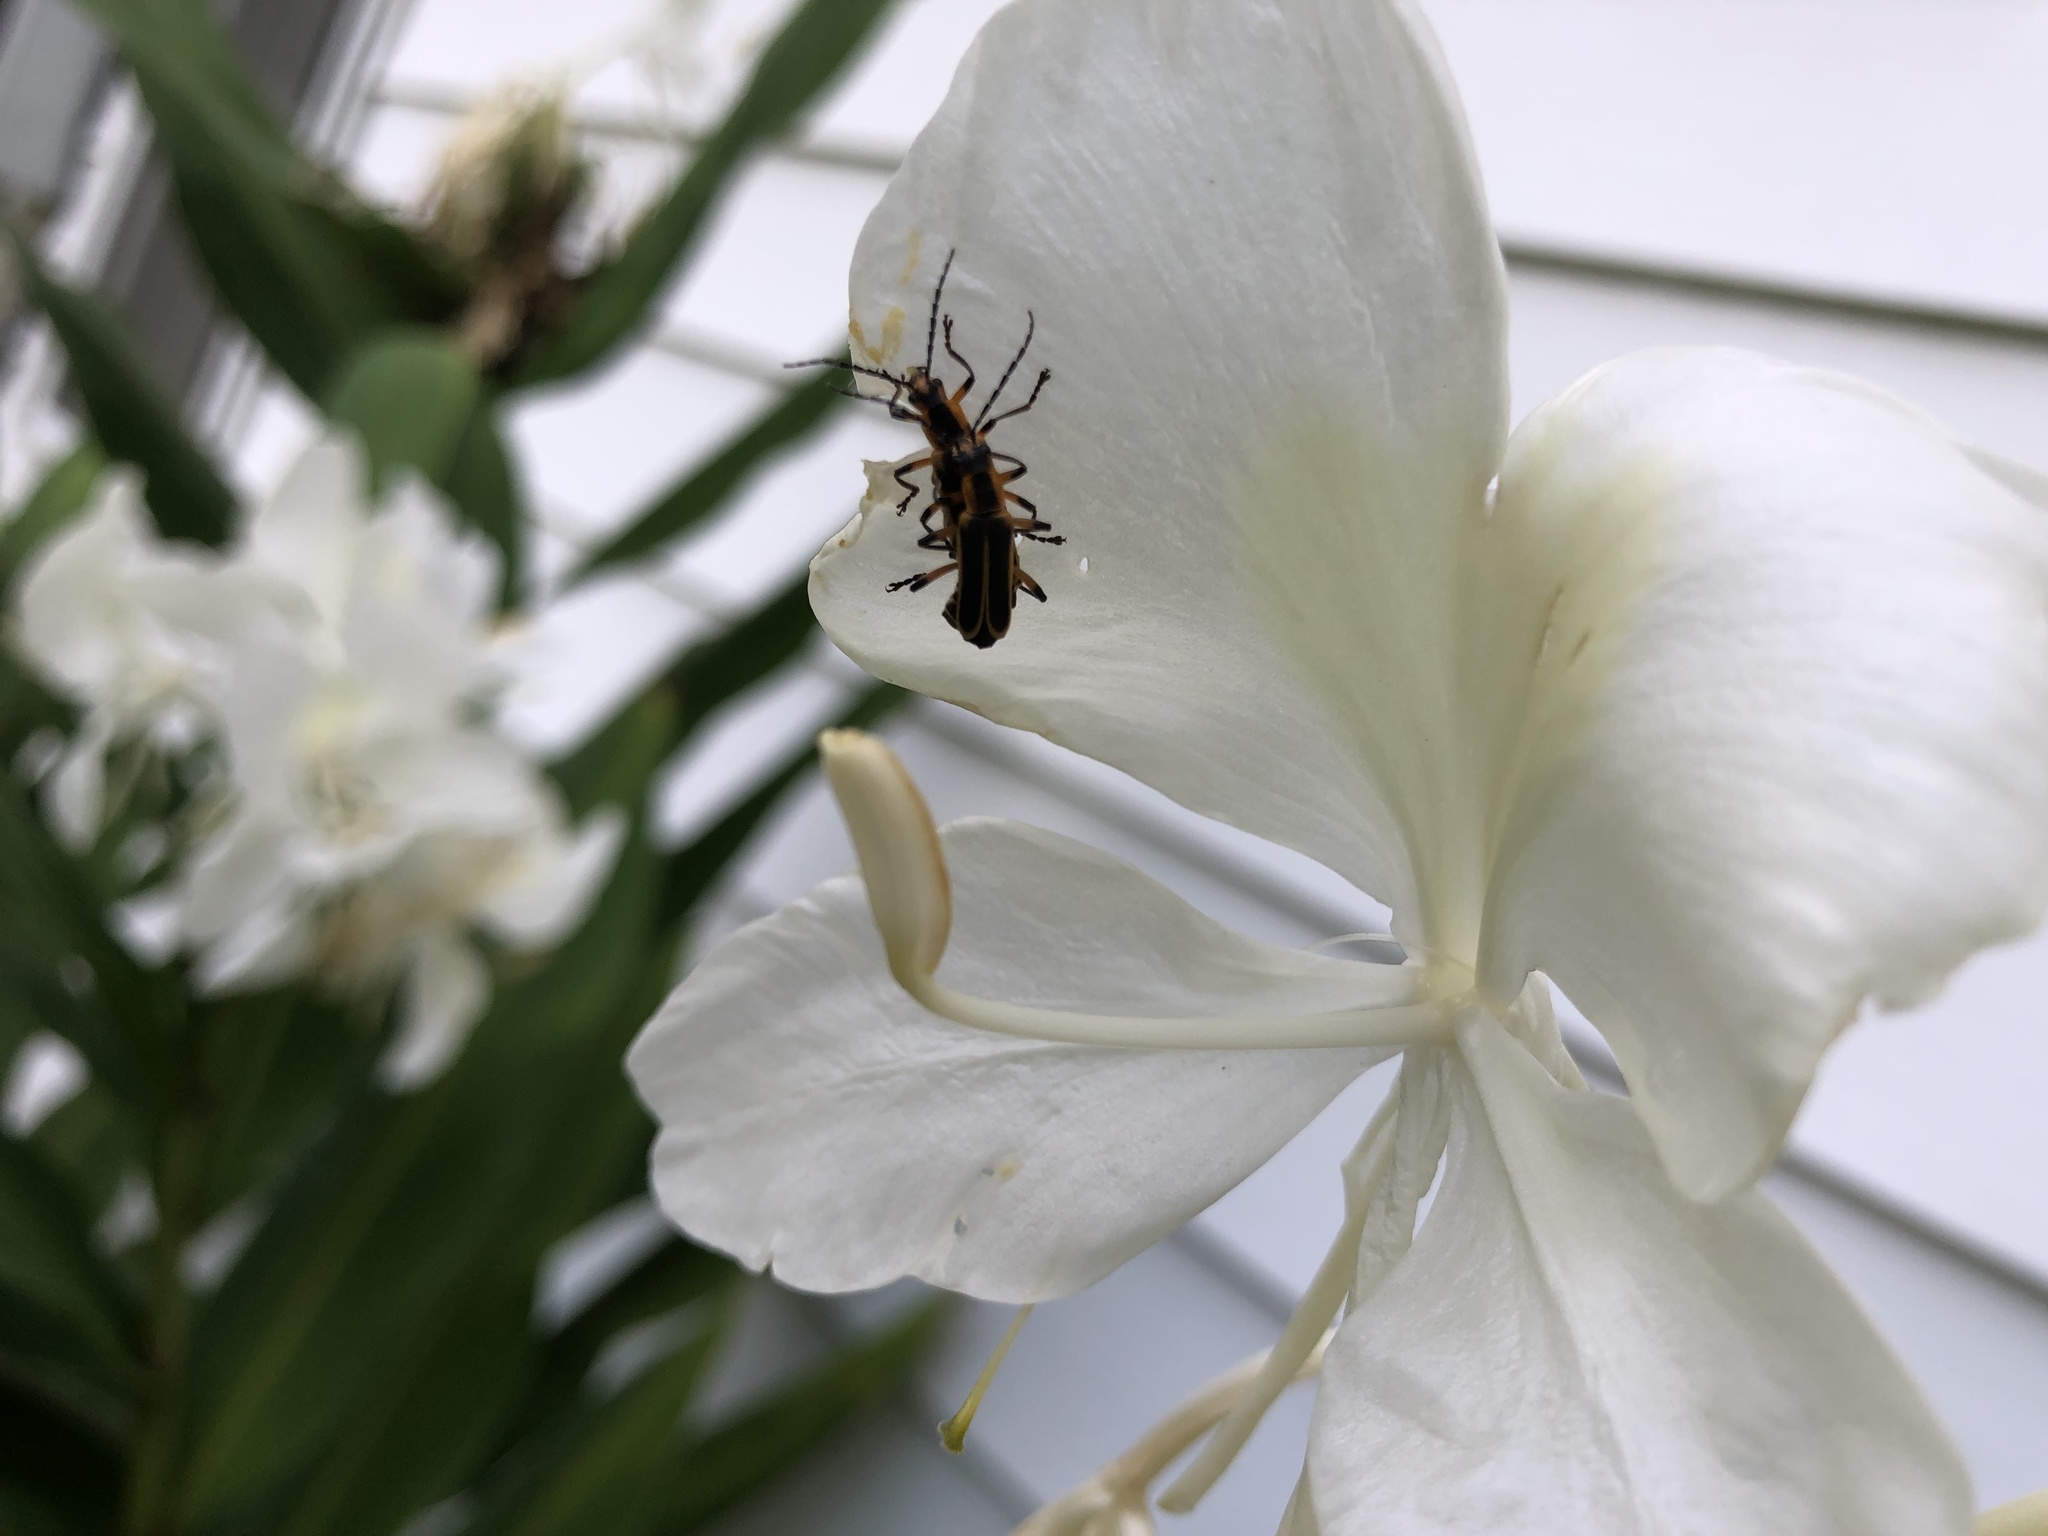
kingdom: Animalia
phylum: Arthropoda
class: Insecta
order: Coleoptera
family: Cantharidae
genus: Chauliognathus
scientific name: Chauliognathus marginatus
